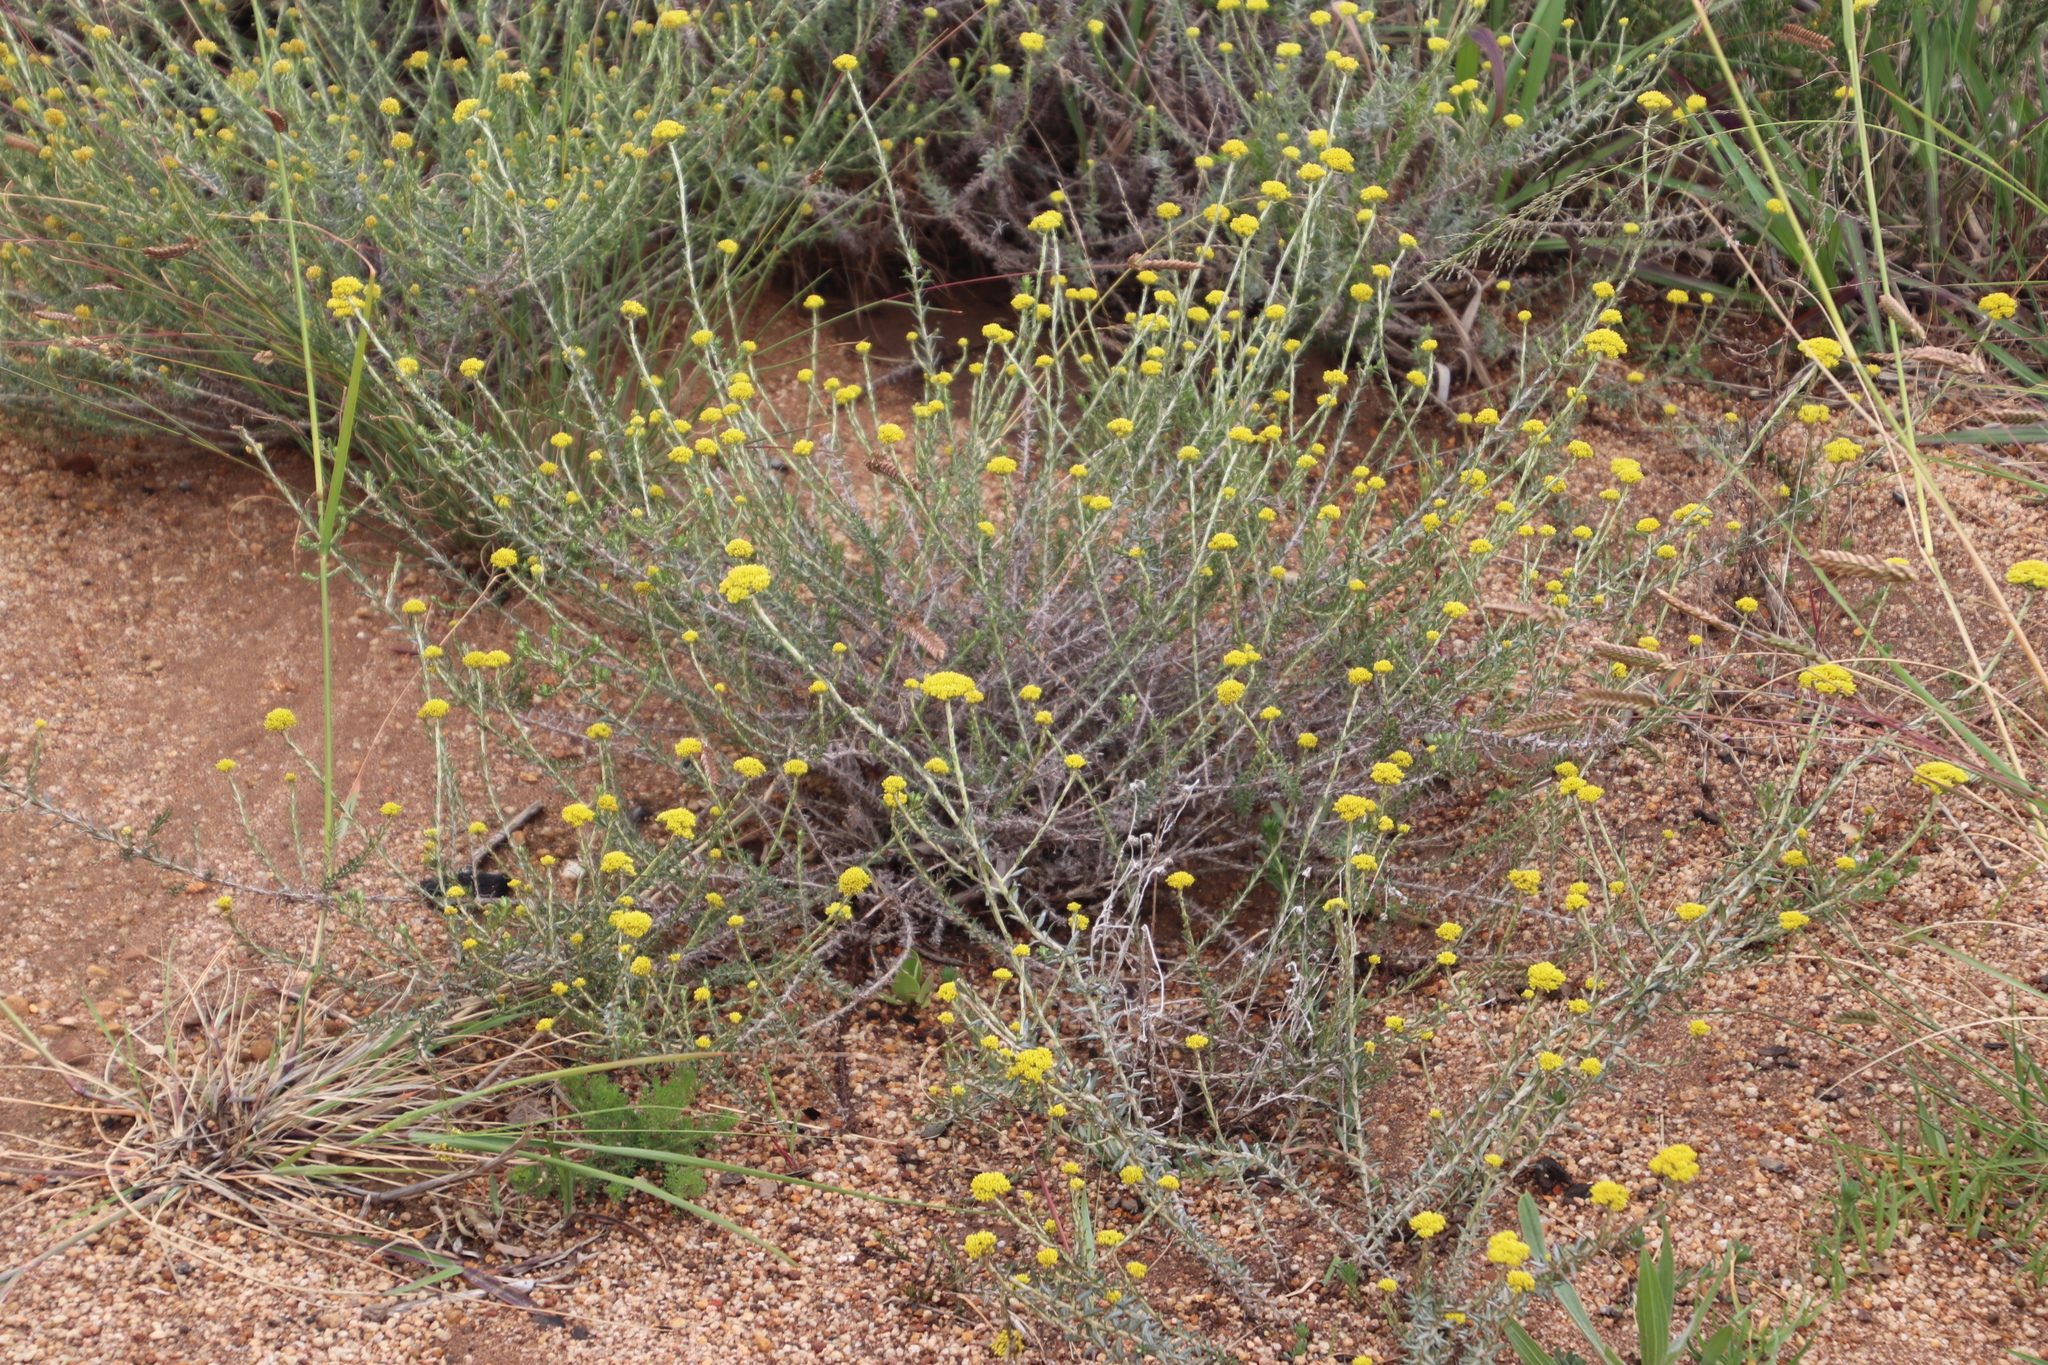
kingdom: Plantae
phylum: Tracheophyta
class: Magnoliopsida
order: Asterales
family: Asteraceae
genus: Helichrysum
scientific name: Helichrysum cymosum
